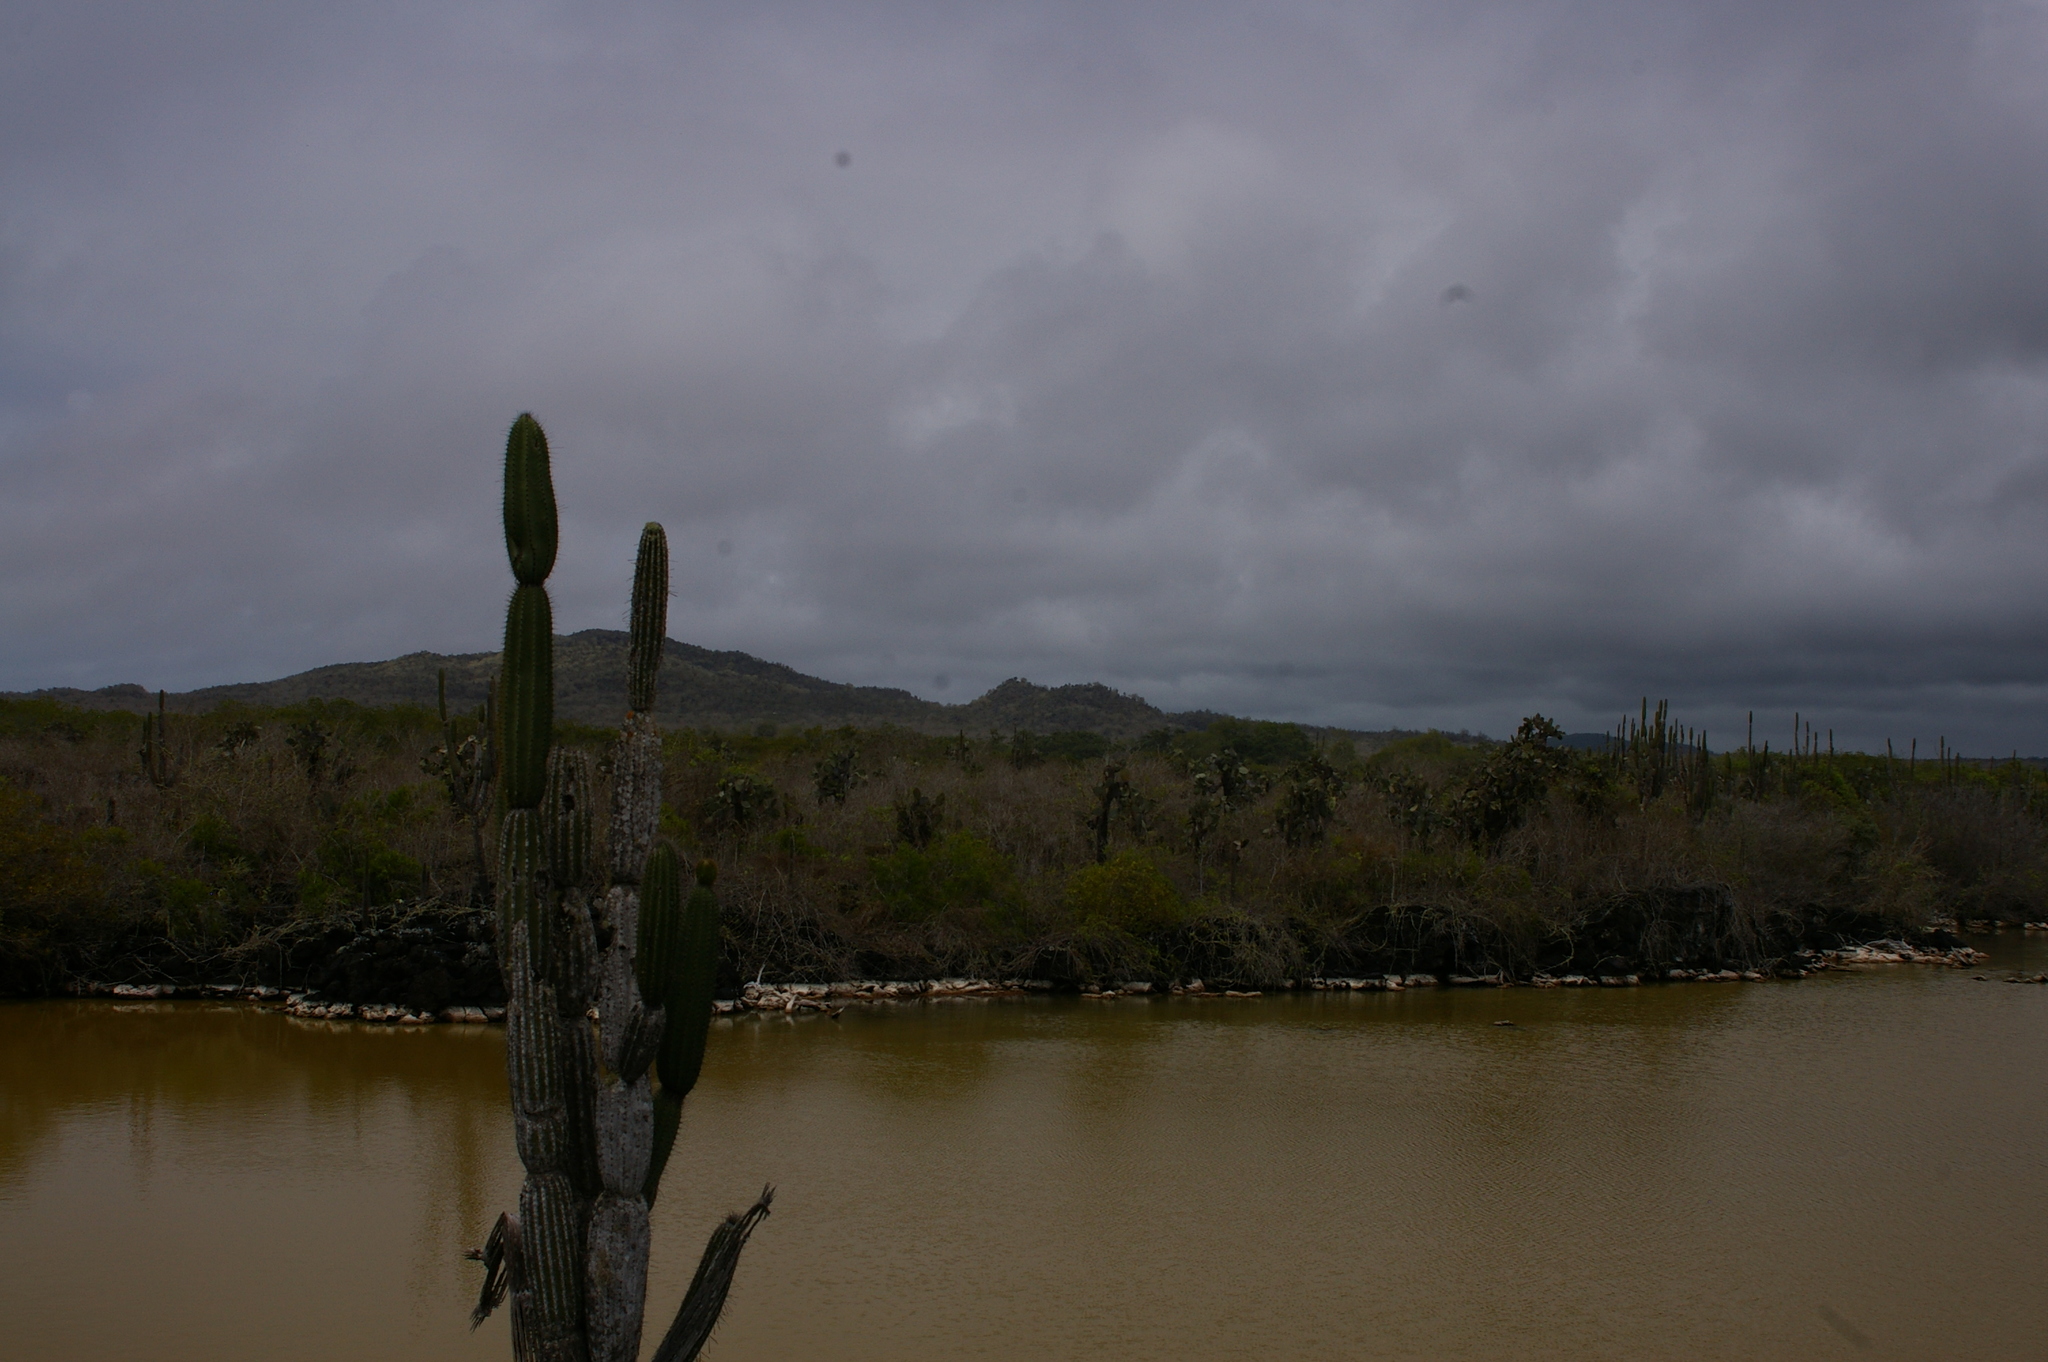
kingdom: Plantae
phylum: Tracheophyta
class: Magnoliopsida
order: Caryophyllales
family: Cactaceae
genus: Jasminocereus
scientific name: Jasminocereus thouarsii
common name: Candelabra cactus
